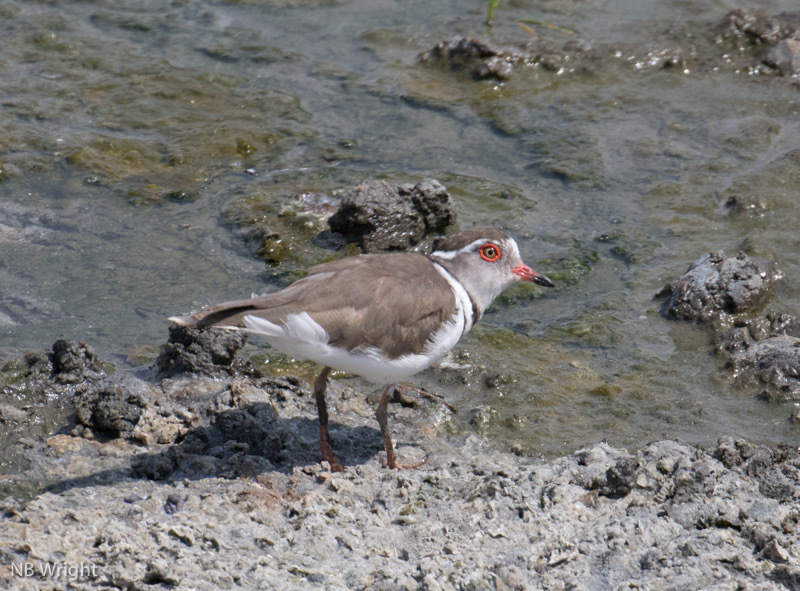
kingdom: Animalia
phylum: Chordata
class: Aves
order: Charadriiformes
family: Charadriidae
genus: Charadrius
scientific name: Charadrius tricollaris
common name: Three-banded plover
